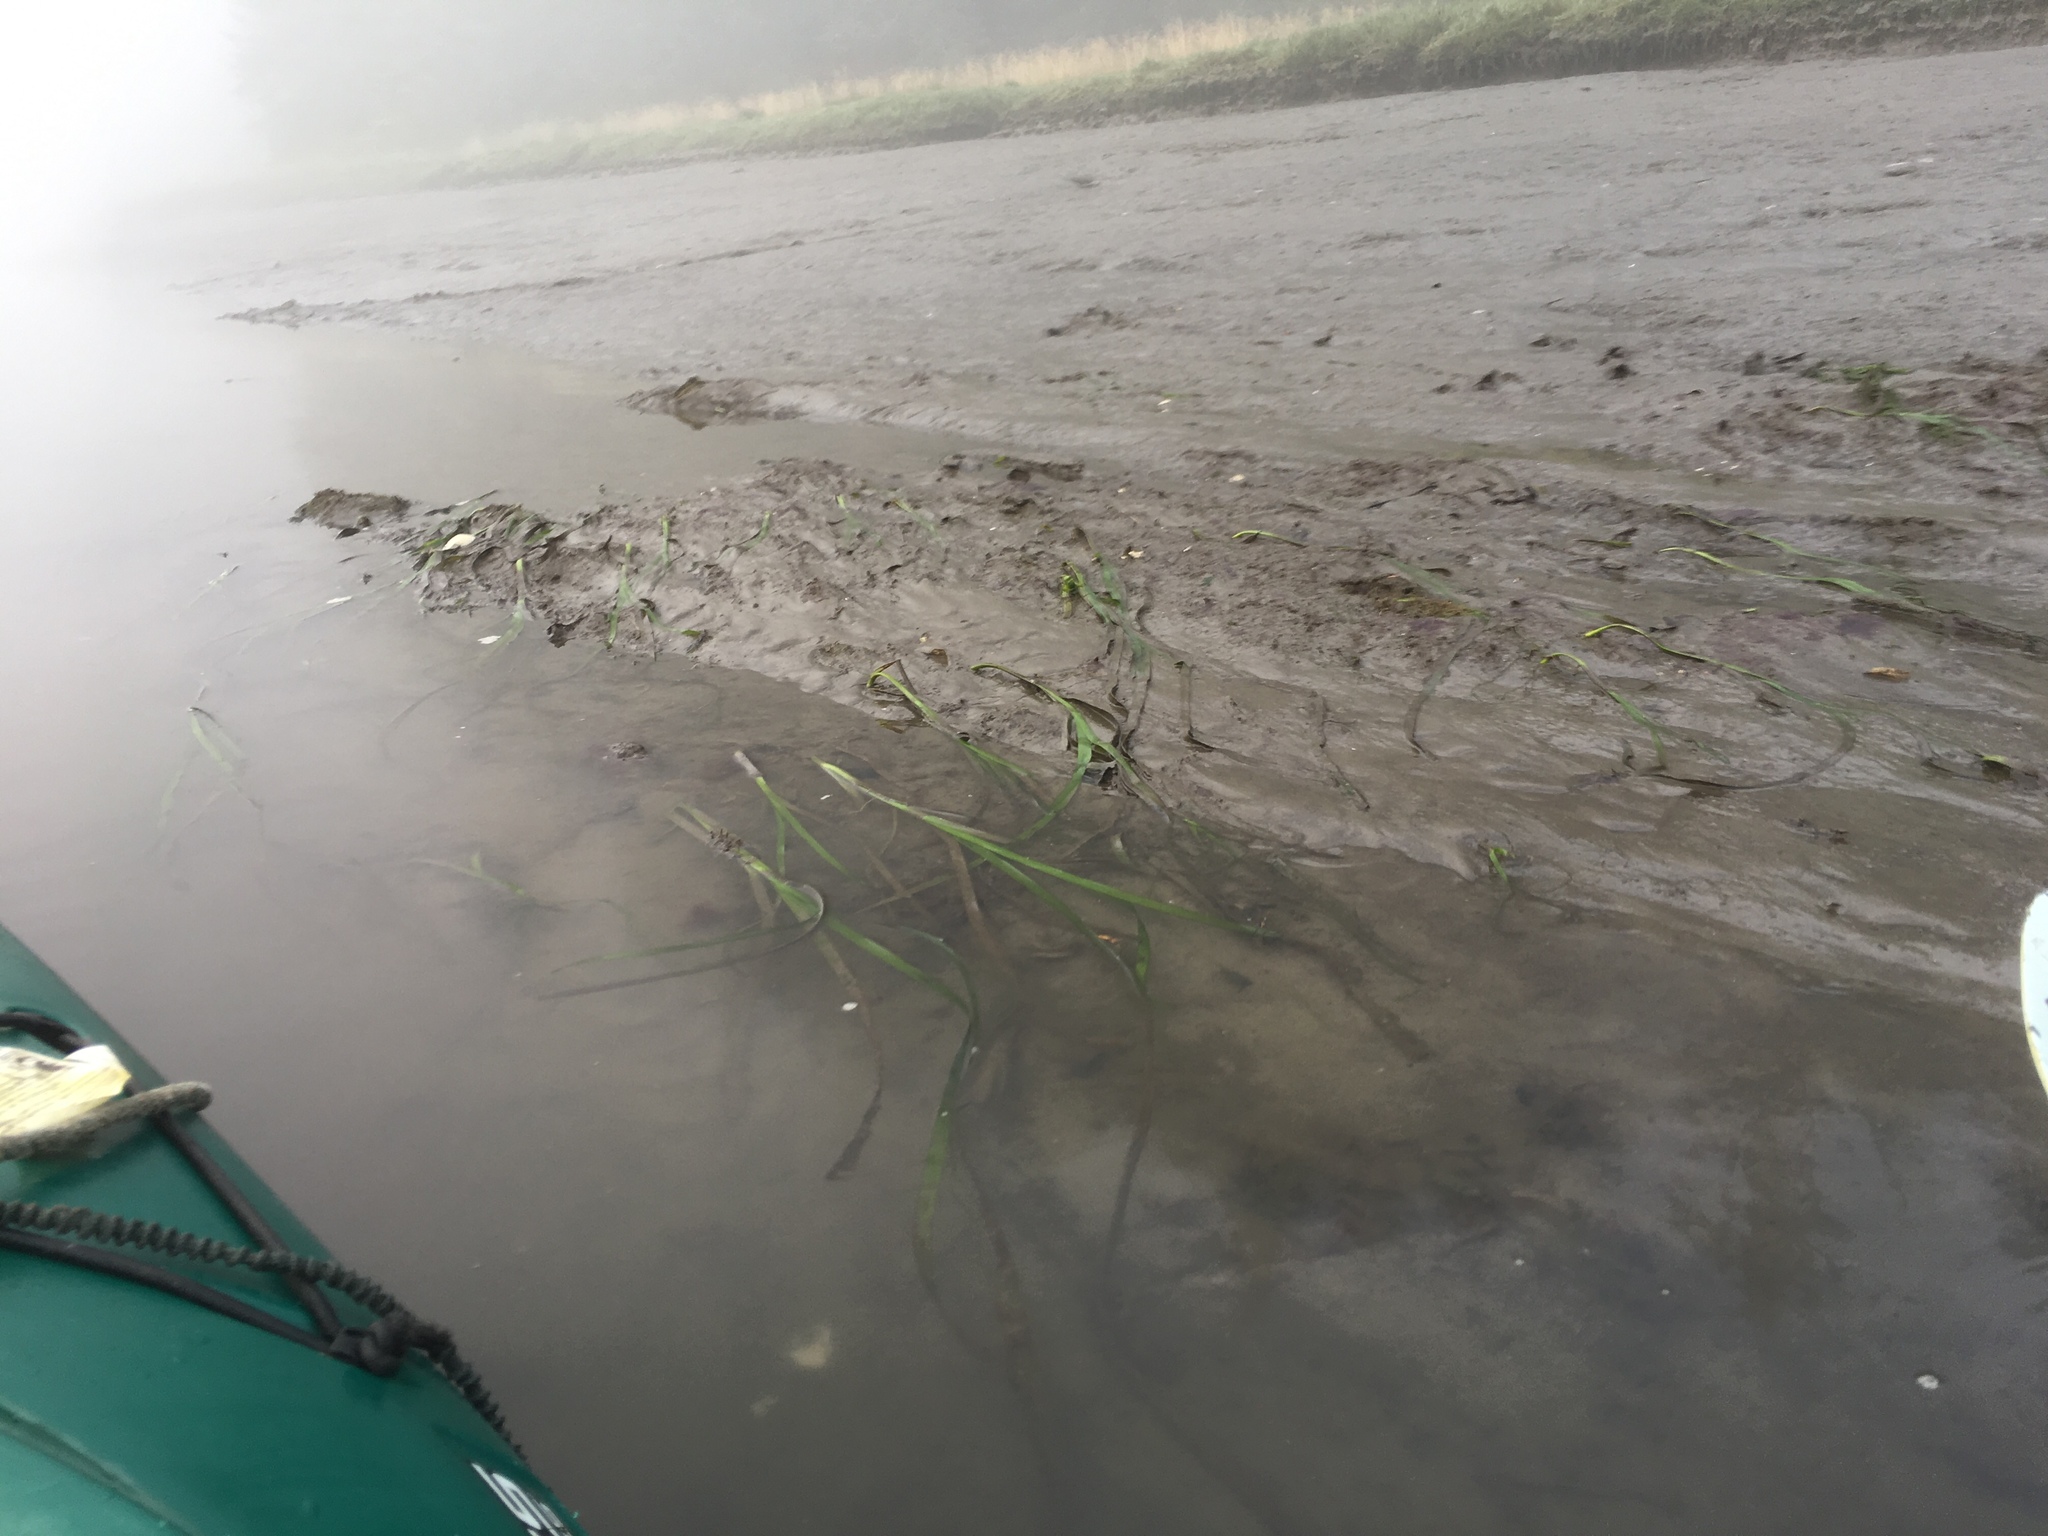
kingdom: Plantae
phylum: Tracheophyta
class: Liliopsida
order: Alismatales
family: Zosteraceae
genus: Zostera
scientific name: Zostera marina
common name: Eelgrass
